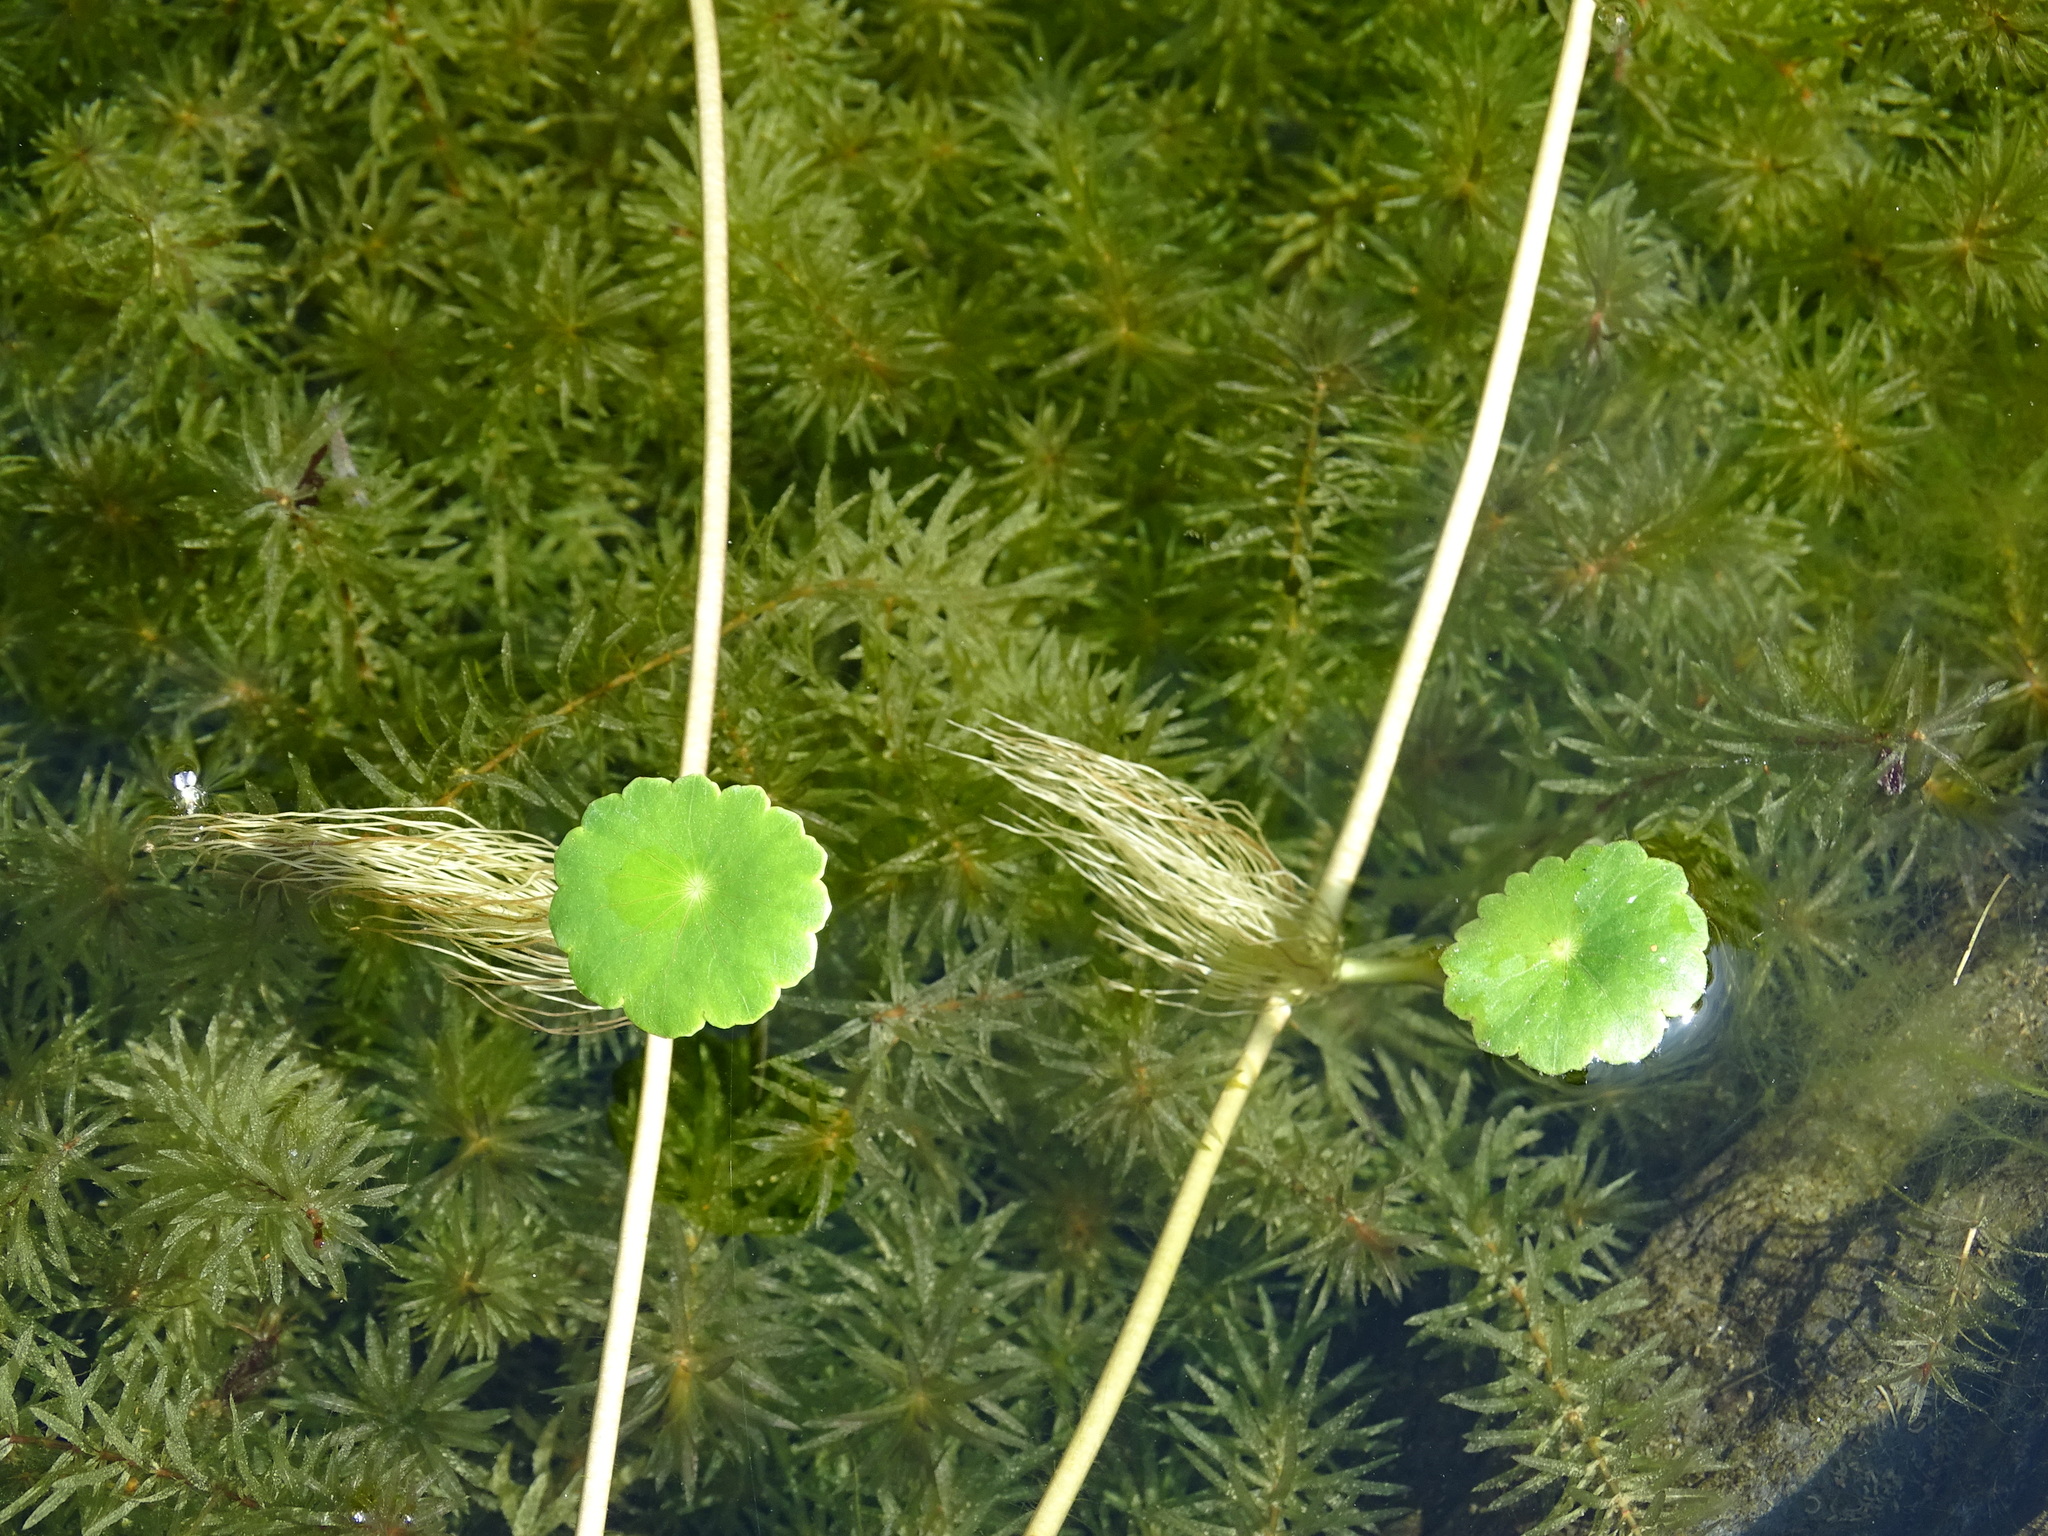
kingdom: Plantae
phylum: Tracheophyta
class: Magnoliopsida
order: Apiales
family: Araliaceae
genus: Hydrocotyle
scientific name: Hydrocotyle verticillata
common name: Whorled marshpennywort
